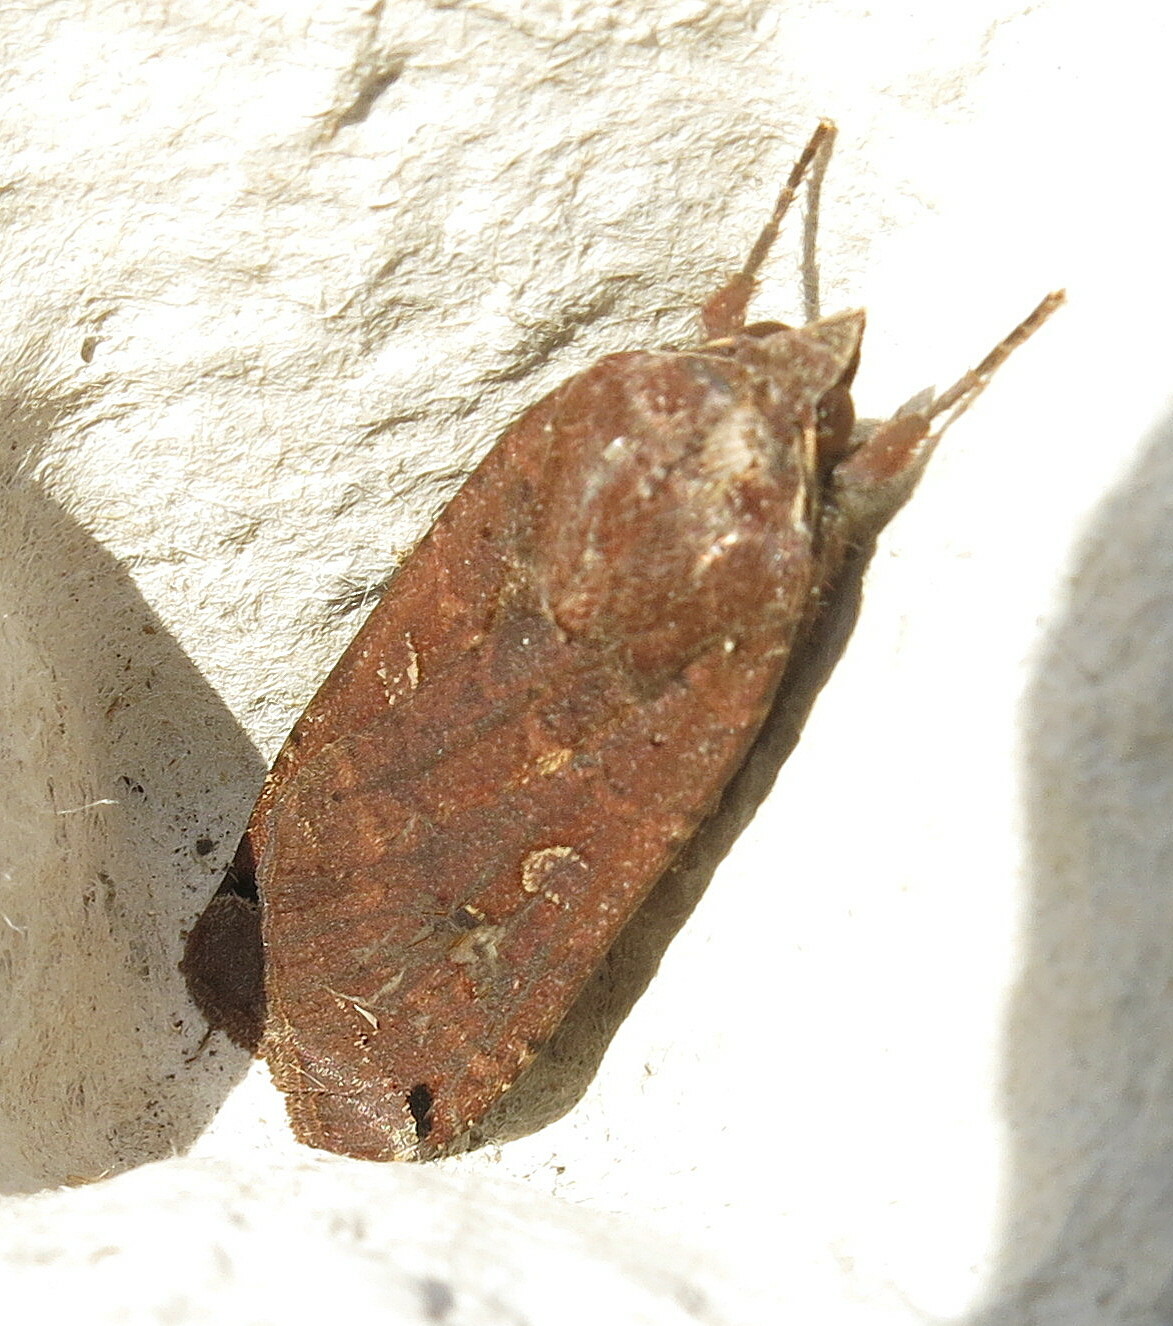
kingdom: Animalia
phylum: Arthropoda
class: Insecta
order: Lepidoptera
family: Noctuidae
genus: Noctua
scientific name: Noctua pronuba
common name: Large yellow underwing
